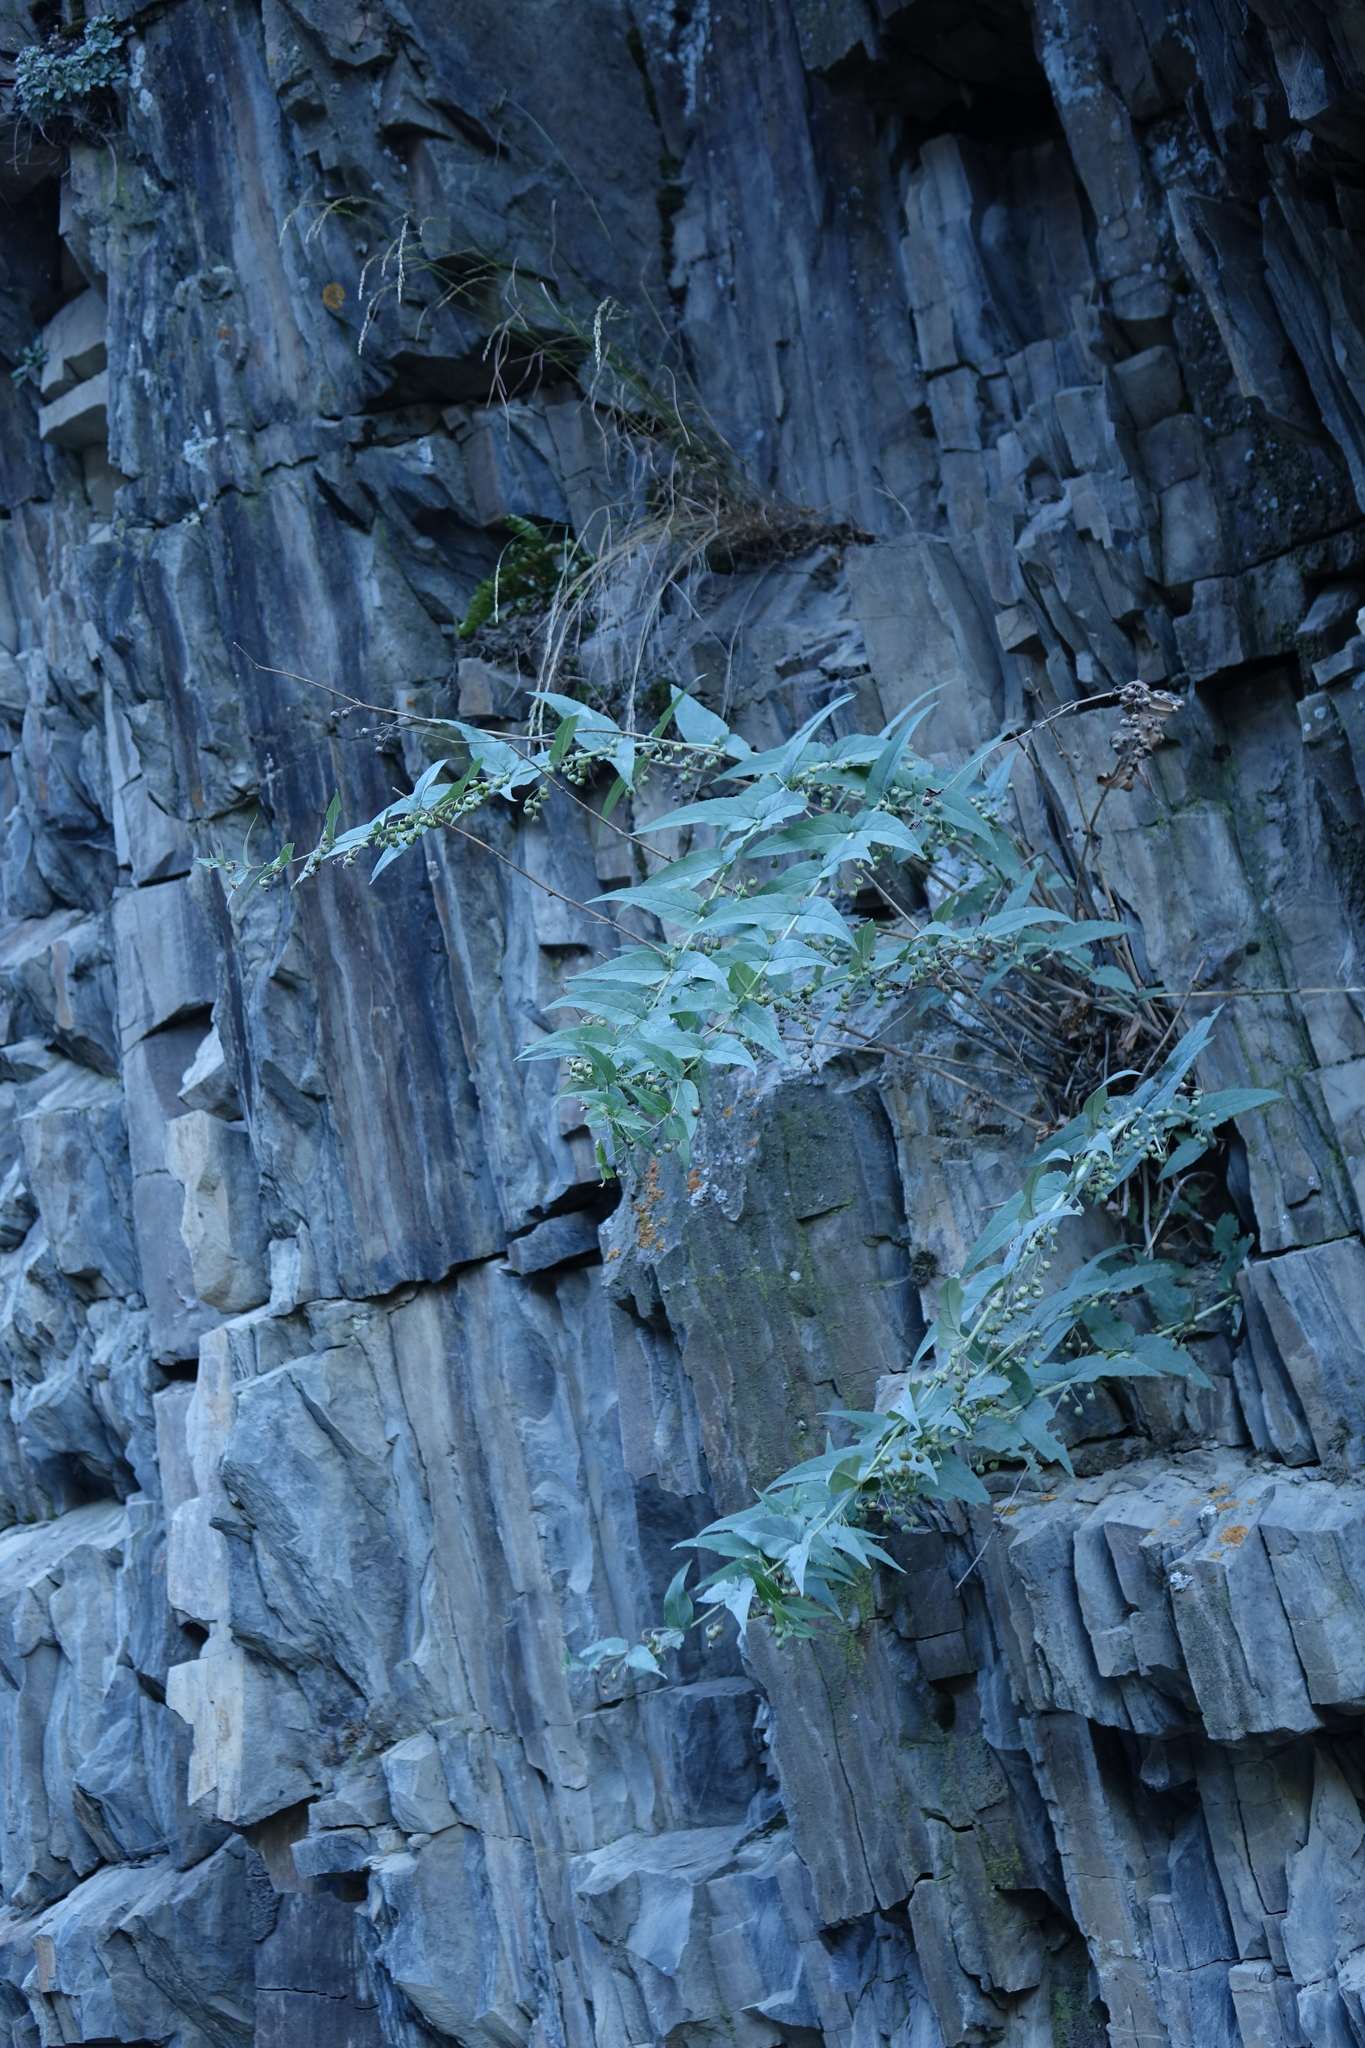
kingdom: Plantae
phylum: Tracheophyta
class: Magnoliopsida
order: Lamiales
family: Scrophulariaceae
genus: Scrophularia
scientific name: Scrophularia lateriflora
